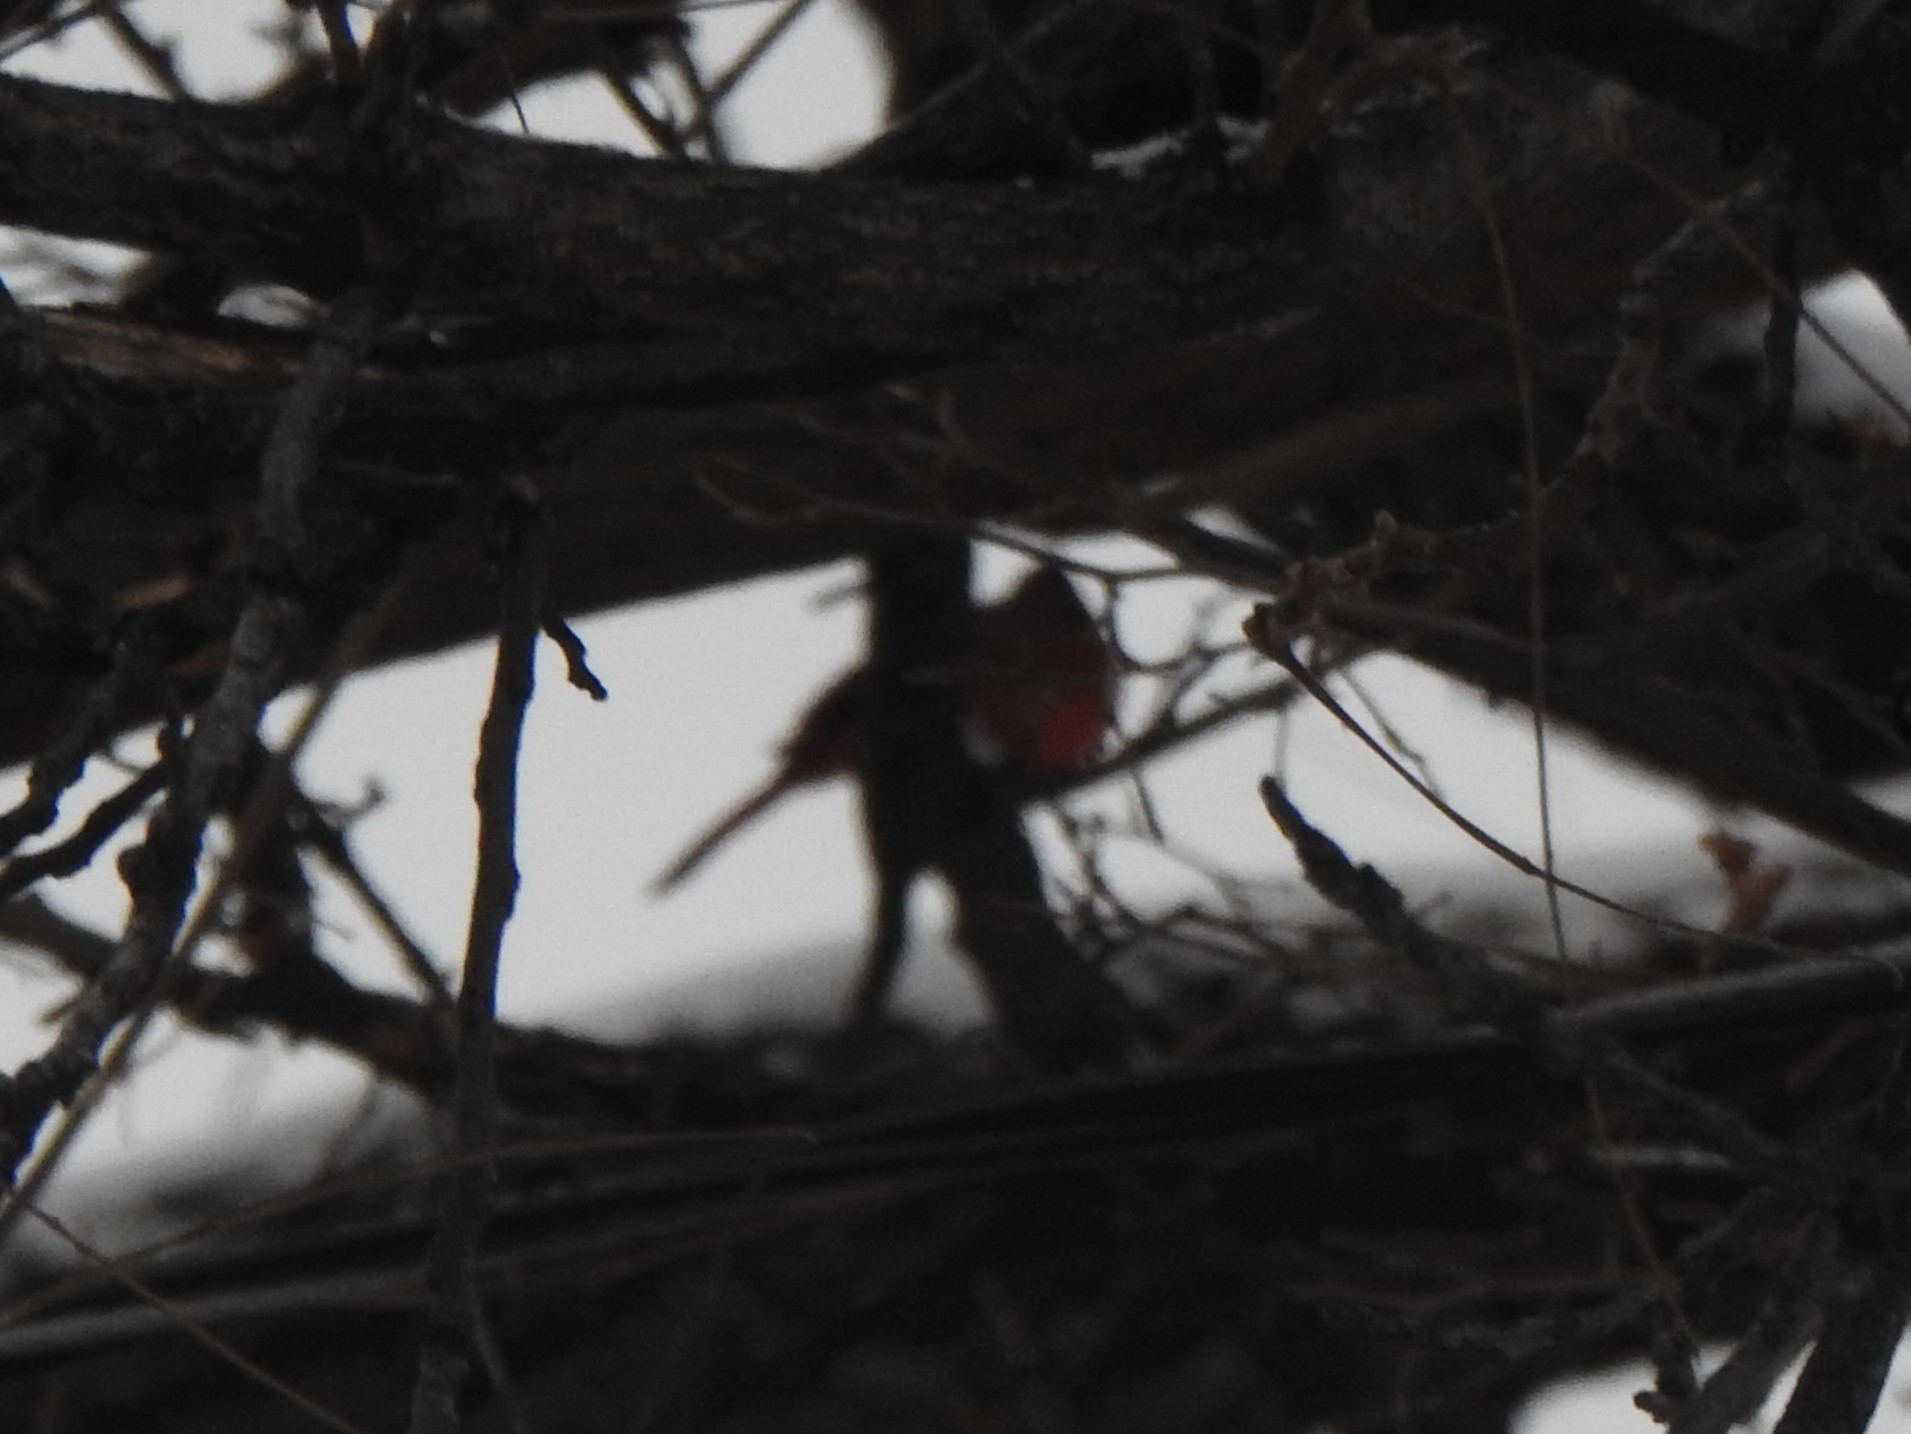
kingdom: Animalia
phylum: Chordata
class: Aves
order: Passeriformes
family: Cardinalidae
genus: Cardinalis
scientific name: Cardinalis cardinalis
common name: Northern cardinal
